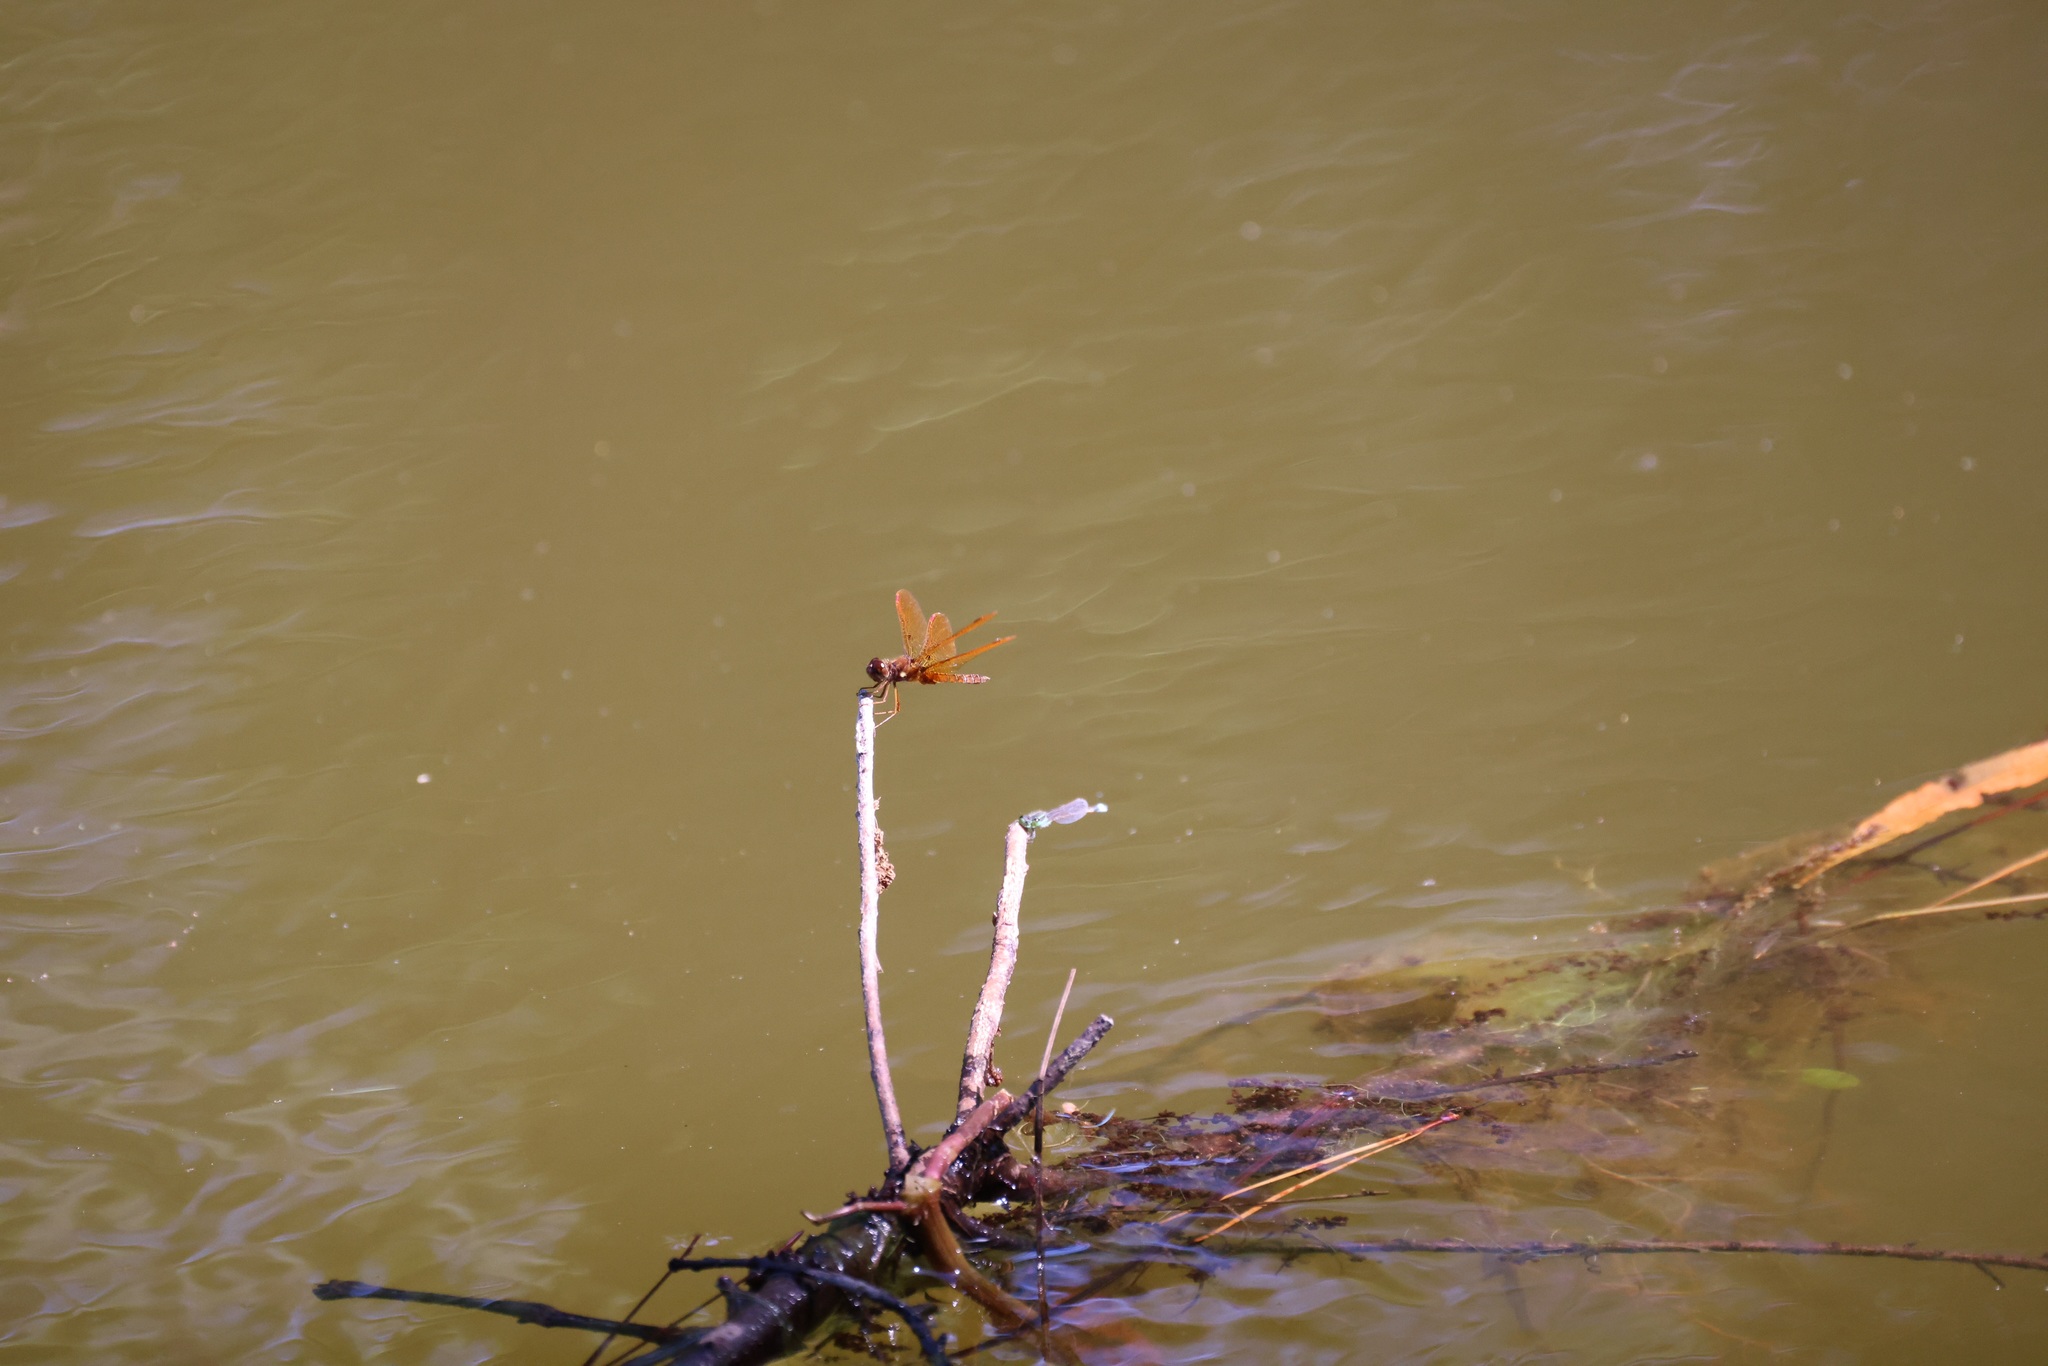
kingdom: Animalia
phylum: Arthropoda
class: Insecta
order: Odonata
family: Libellulidae
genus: Perithemis
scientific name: Perithemis tenera
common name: Eastern amberwing
